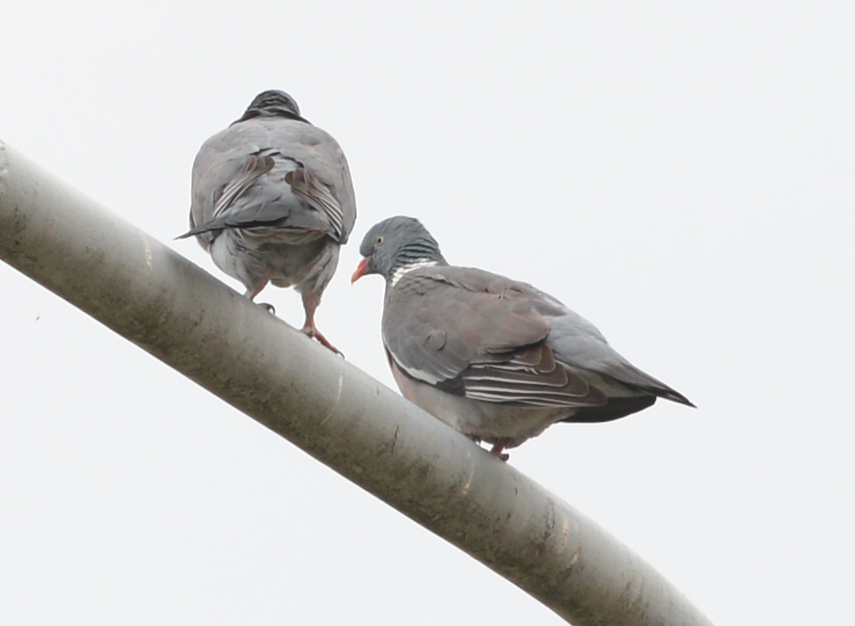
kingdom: Animalia
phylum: Chordata
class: Aves
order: Columbiformes
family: Columbidae
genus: Columba
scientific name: Columba palumbus
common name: Common wood pigeon
